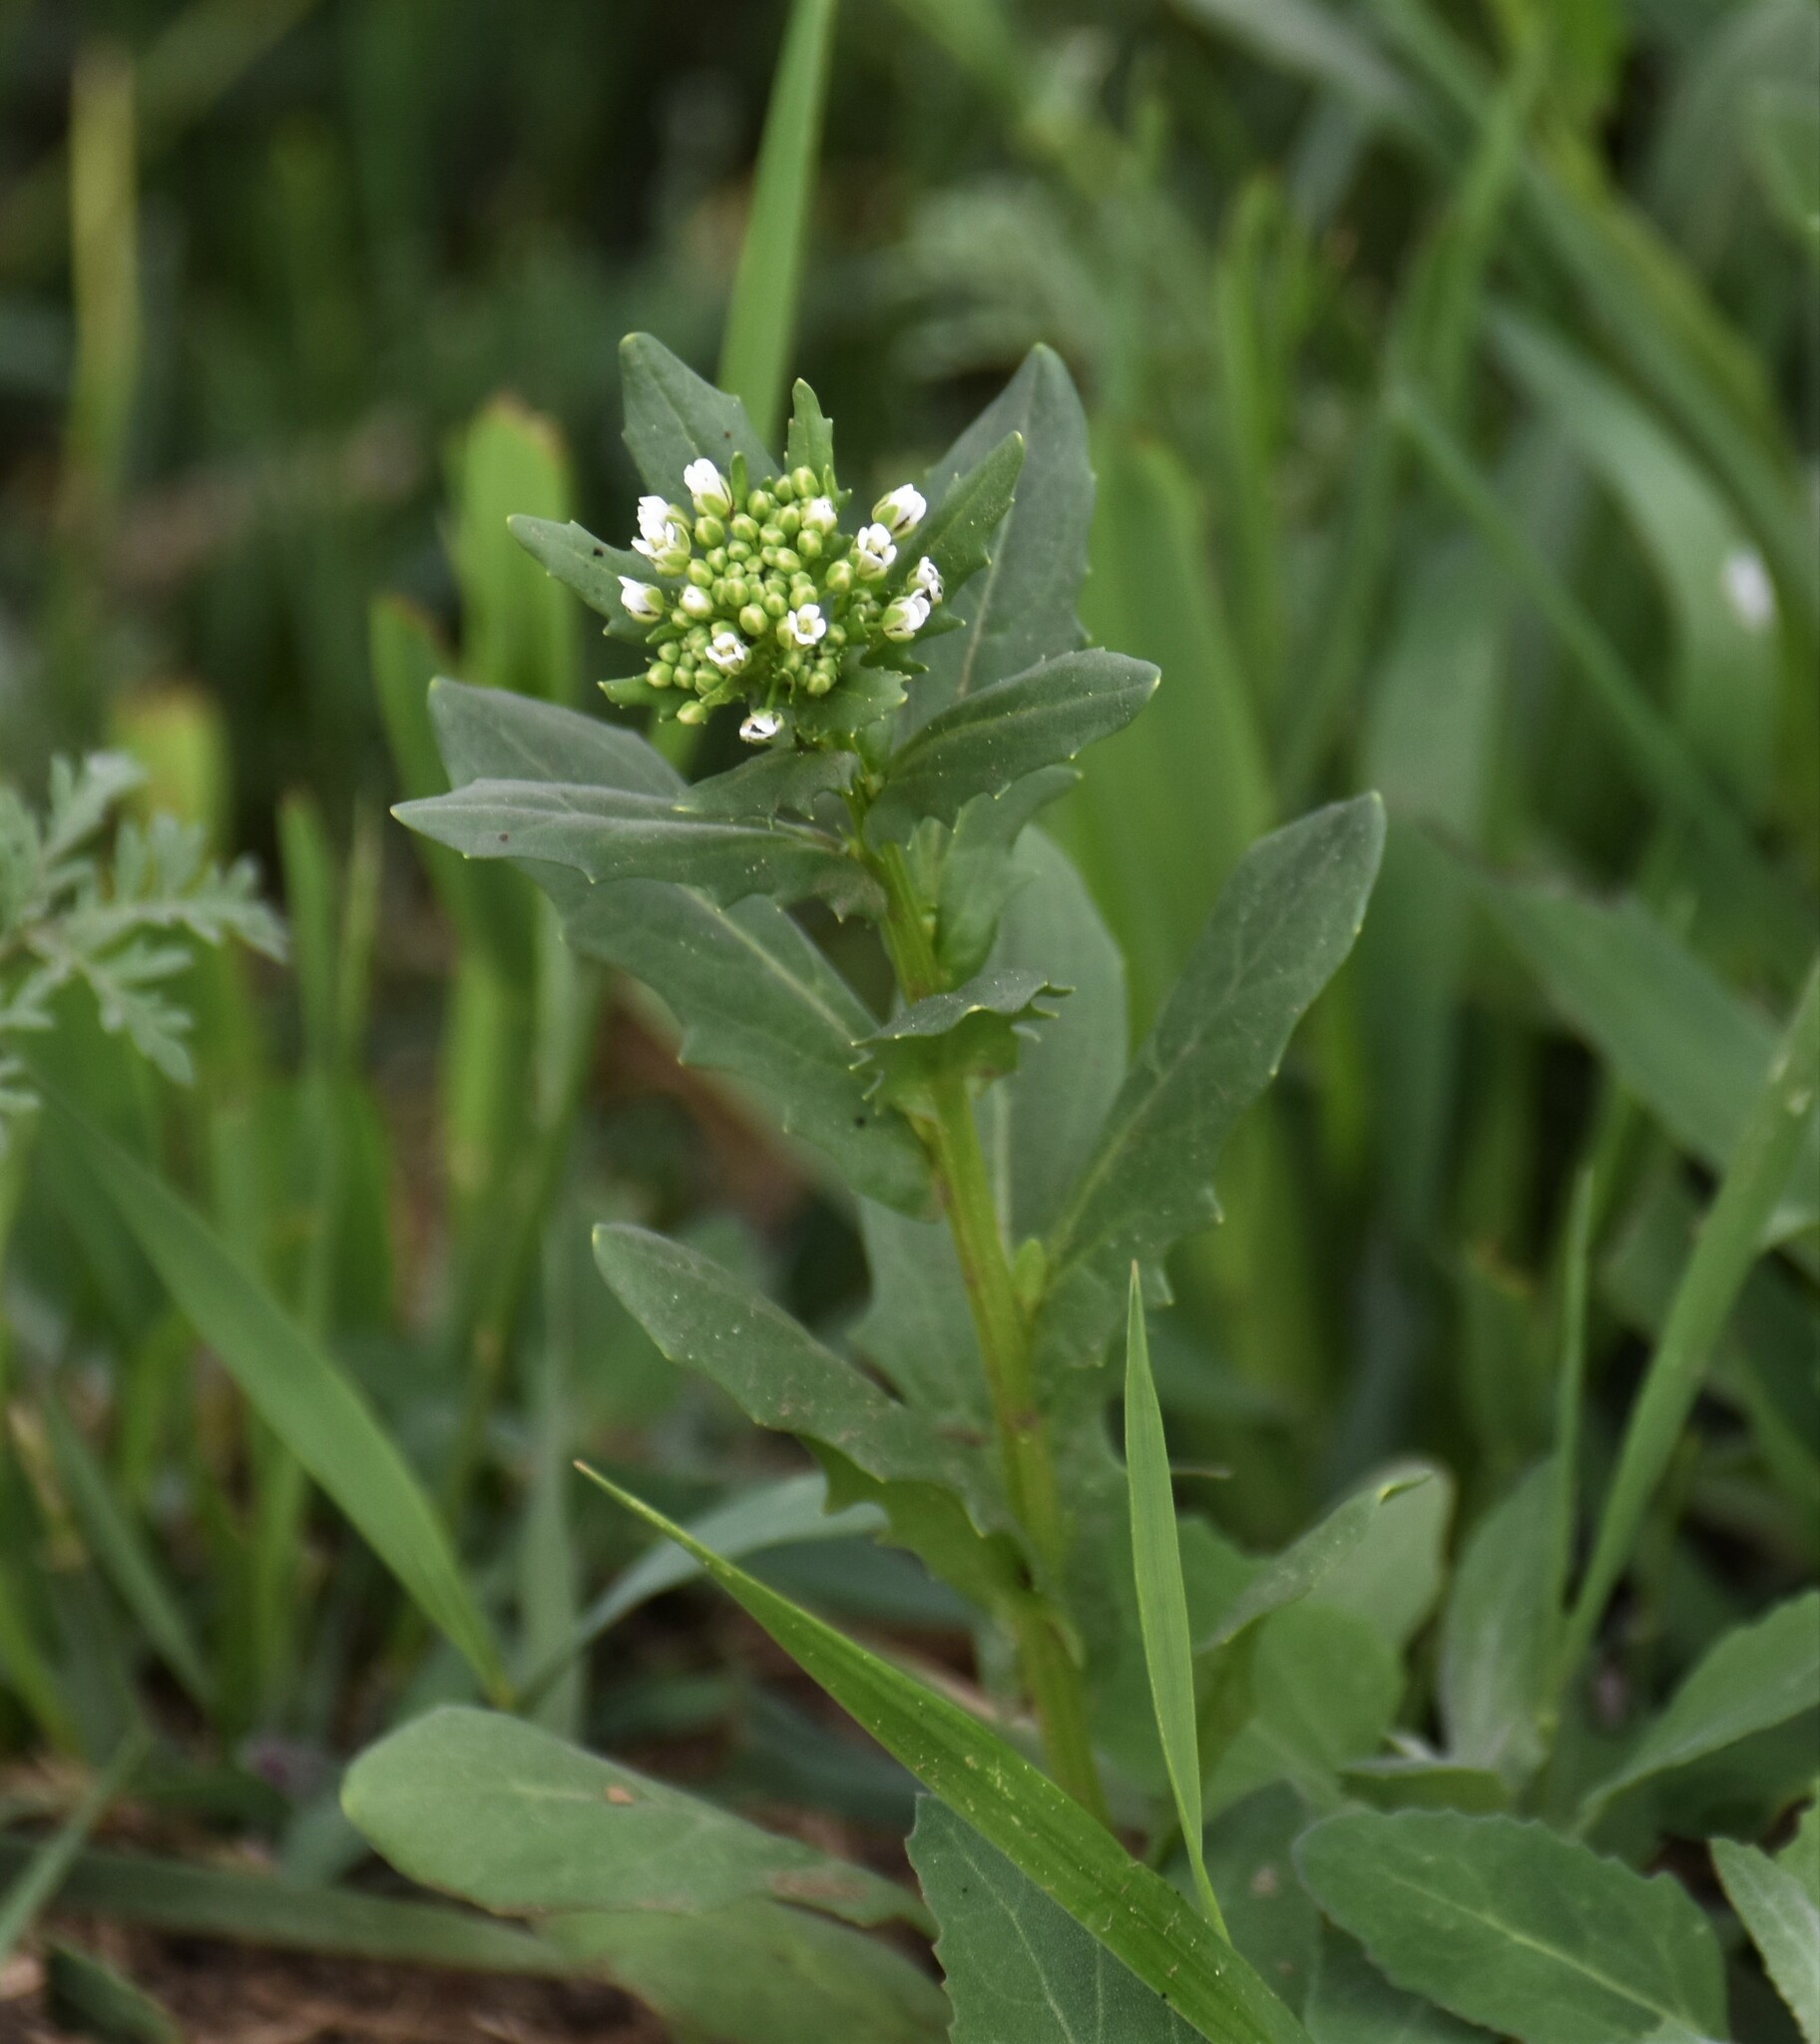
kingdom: Plantae
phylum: Tracheophyta
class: Magnoliopsida
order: Brassicales
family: Brassicaceae
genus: Thlaspi
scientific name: Thlaspi arvense
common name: Field pennycress
